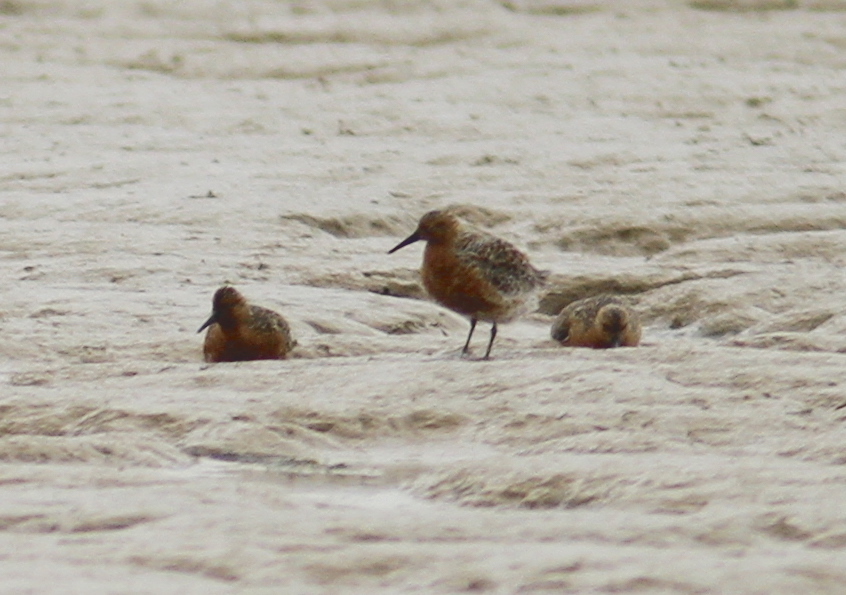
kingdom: Animalia
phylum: Chordata
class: Aves
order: Charadriiformes
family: Scolopacidae
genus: Calidris
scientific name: Calidris canutus
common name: Red knot
